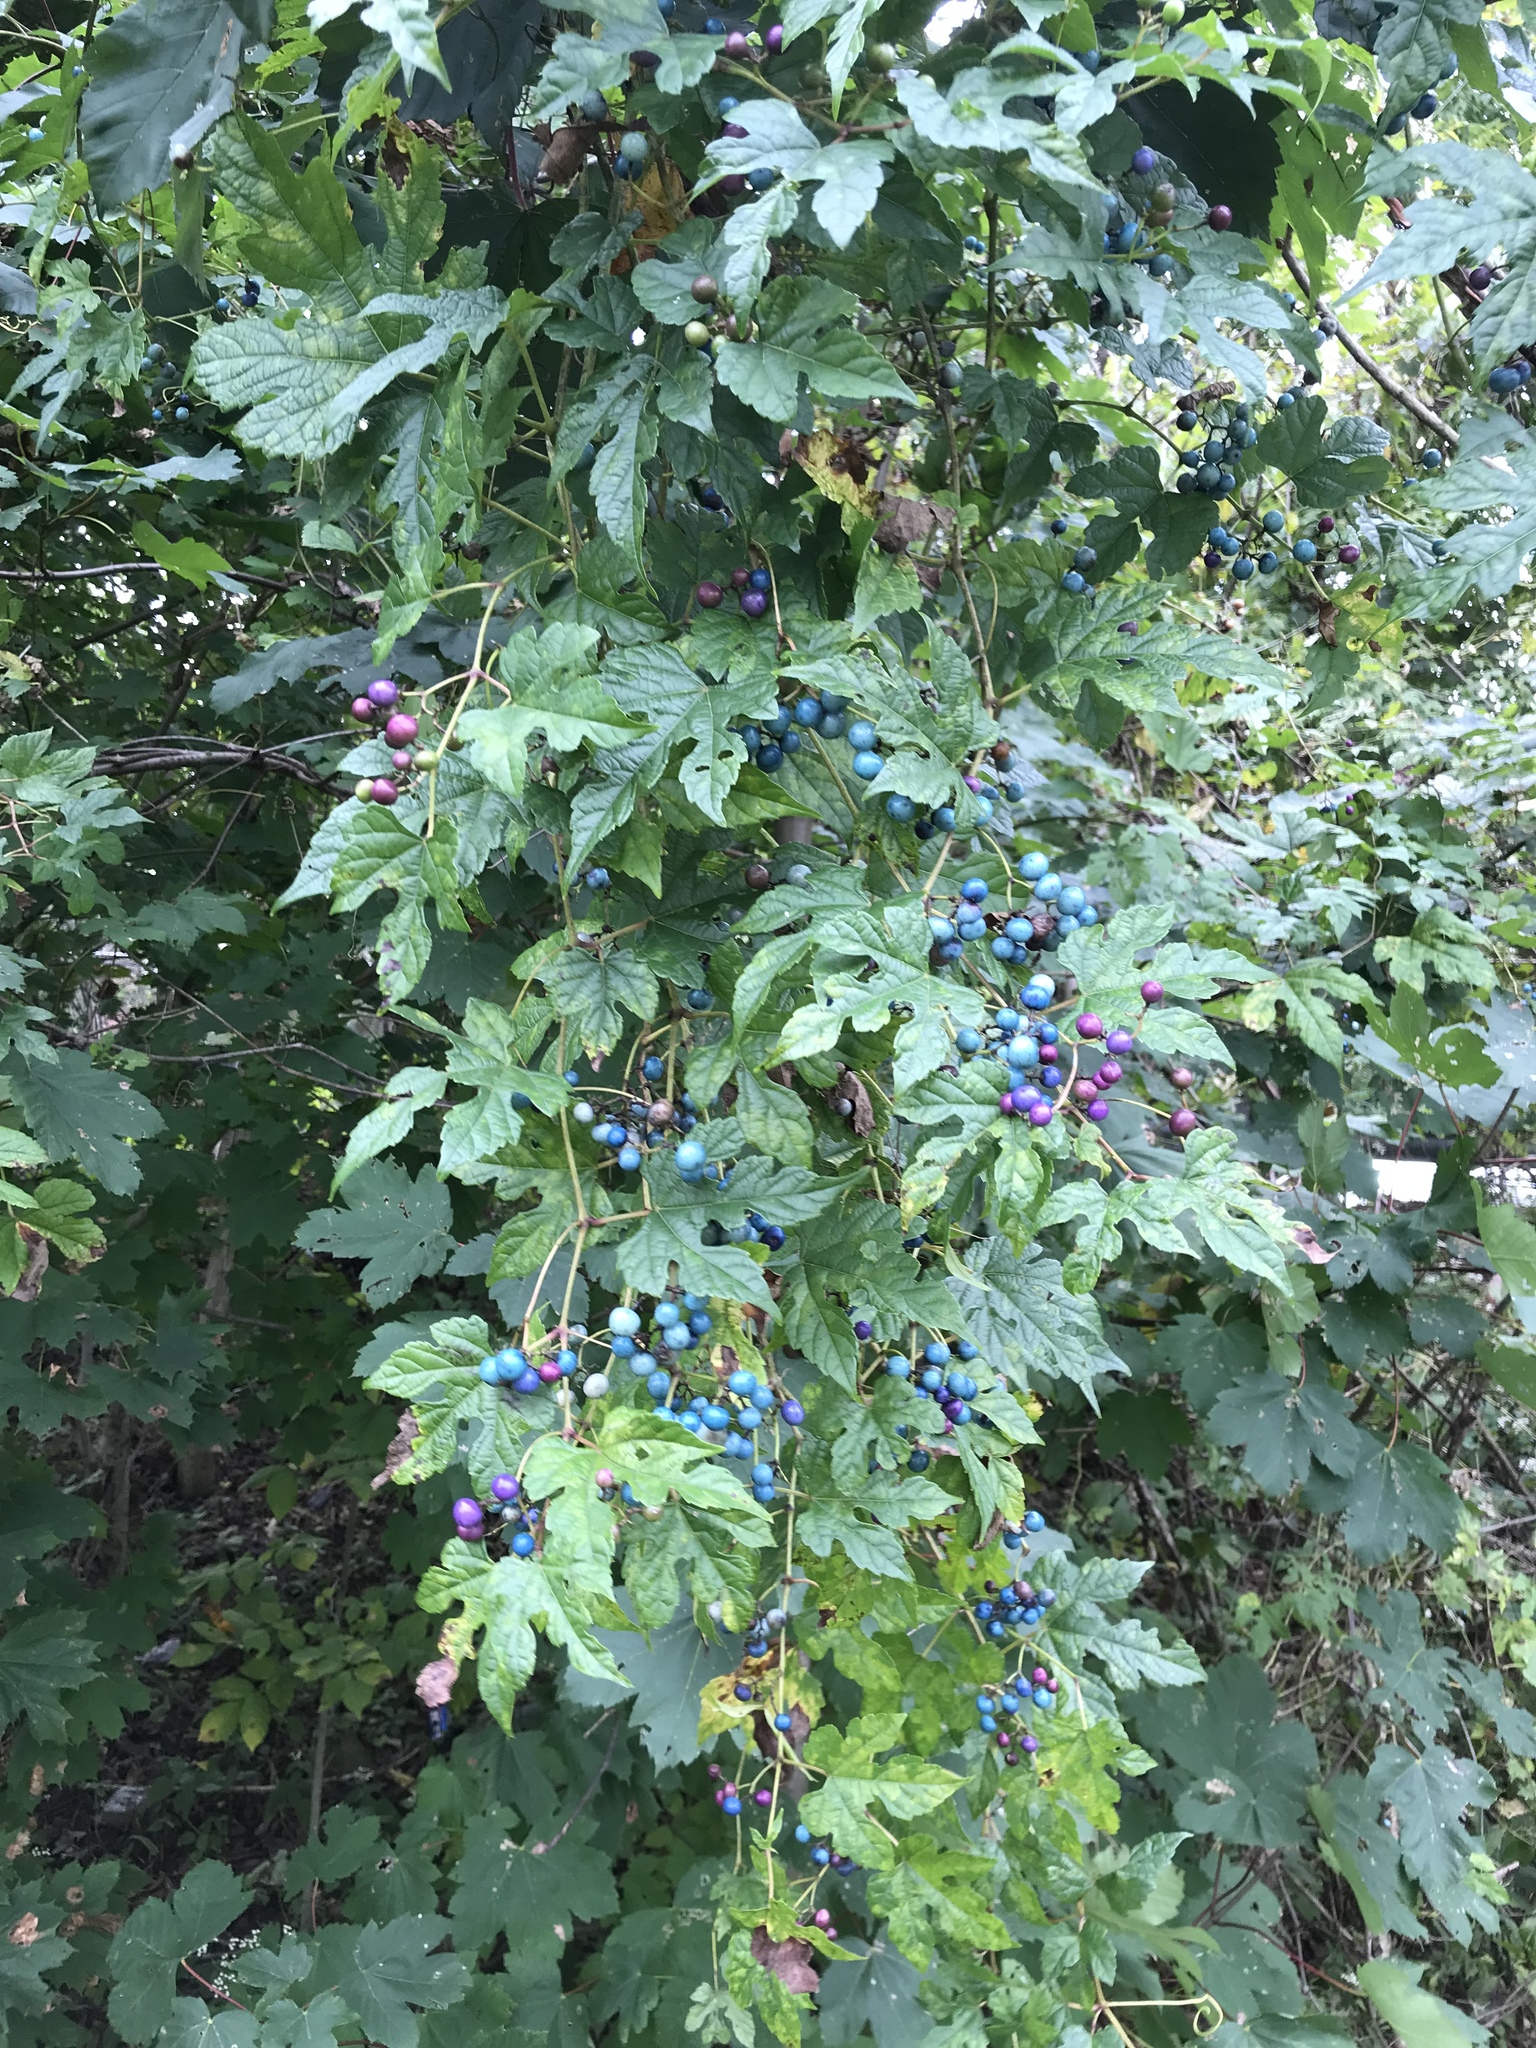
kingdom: Plantae
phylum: Tracheophyta
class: Magnoliopsida
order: Vitales
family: Vitaceae
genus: Ampelopsis
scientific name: Ampelopsis glandulosa
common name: Amur peppervine
